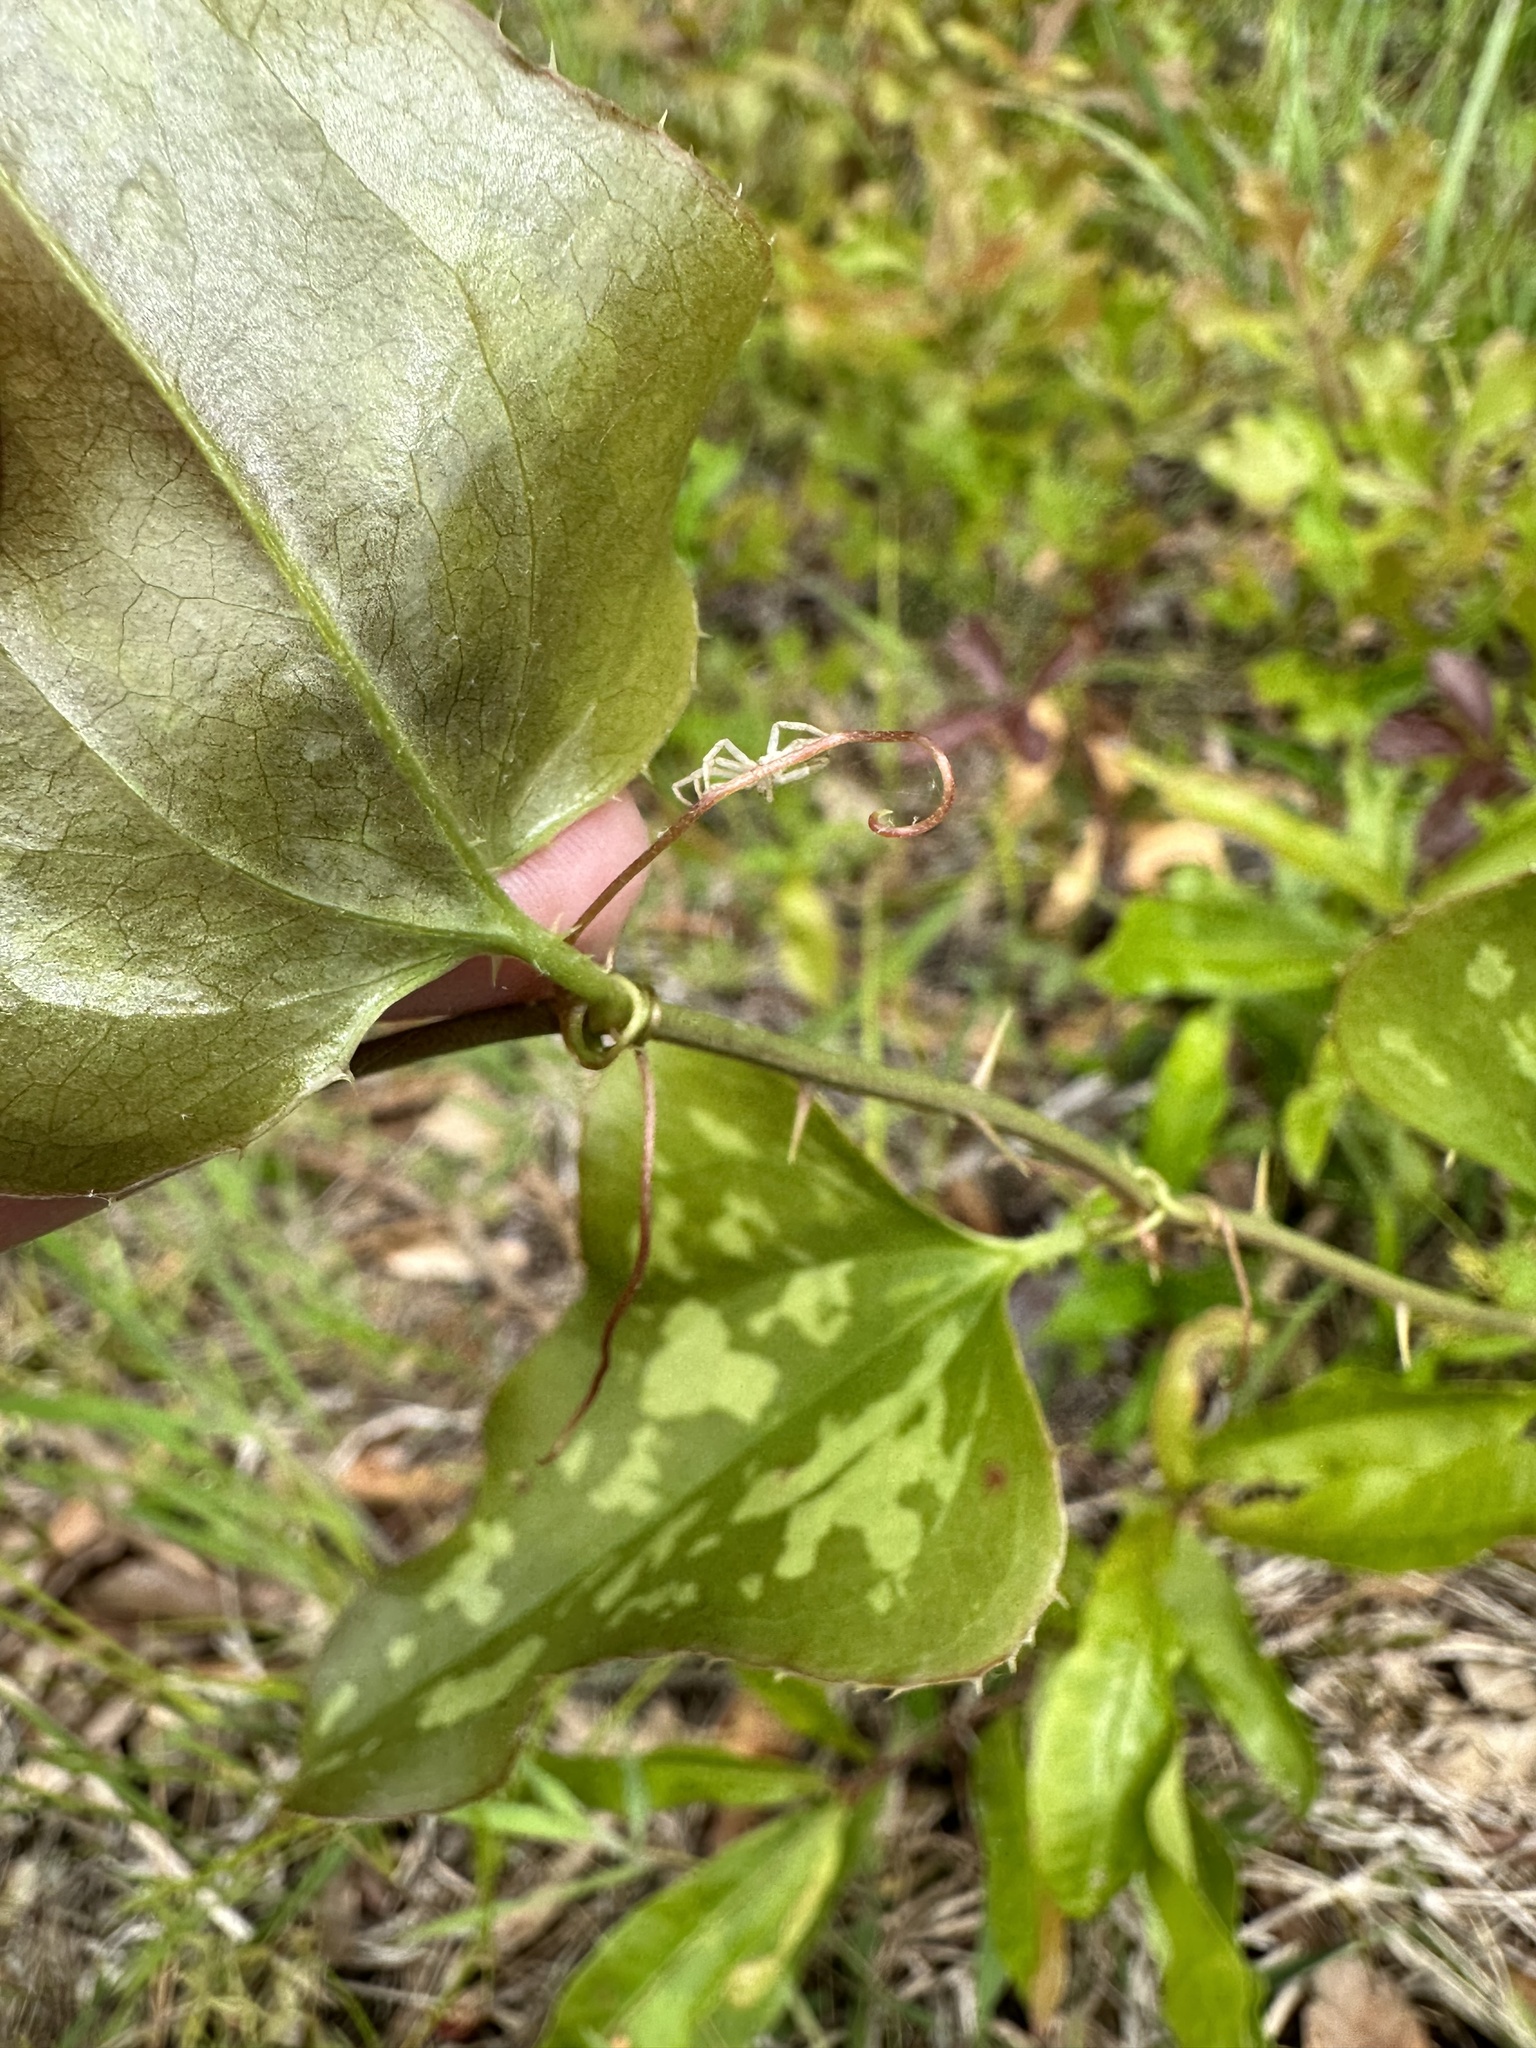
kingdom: Plantae
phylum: Tracheophyta
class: Liliopsida
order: Liliales
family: Smilacaceae
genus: Smilax
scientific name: Smilax bona-nox
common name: Catbrier
